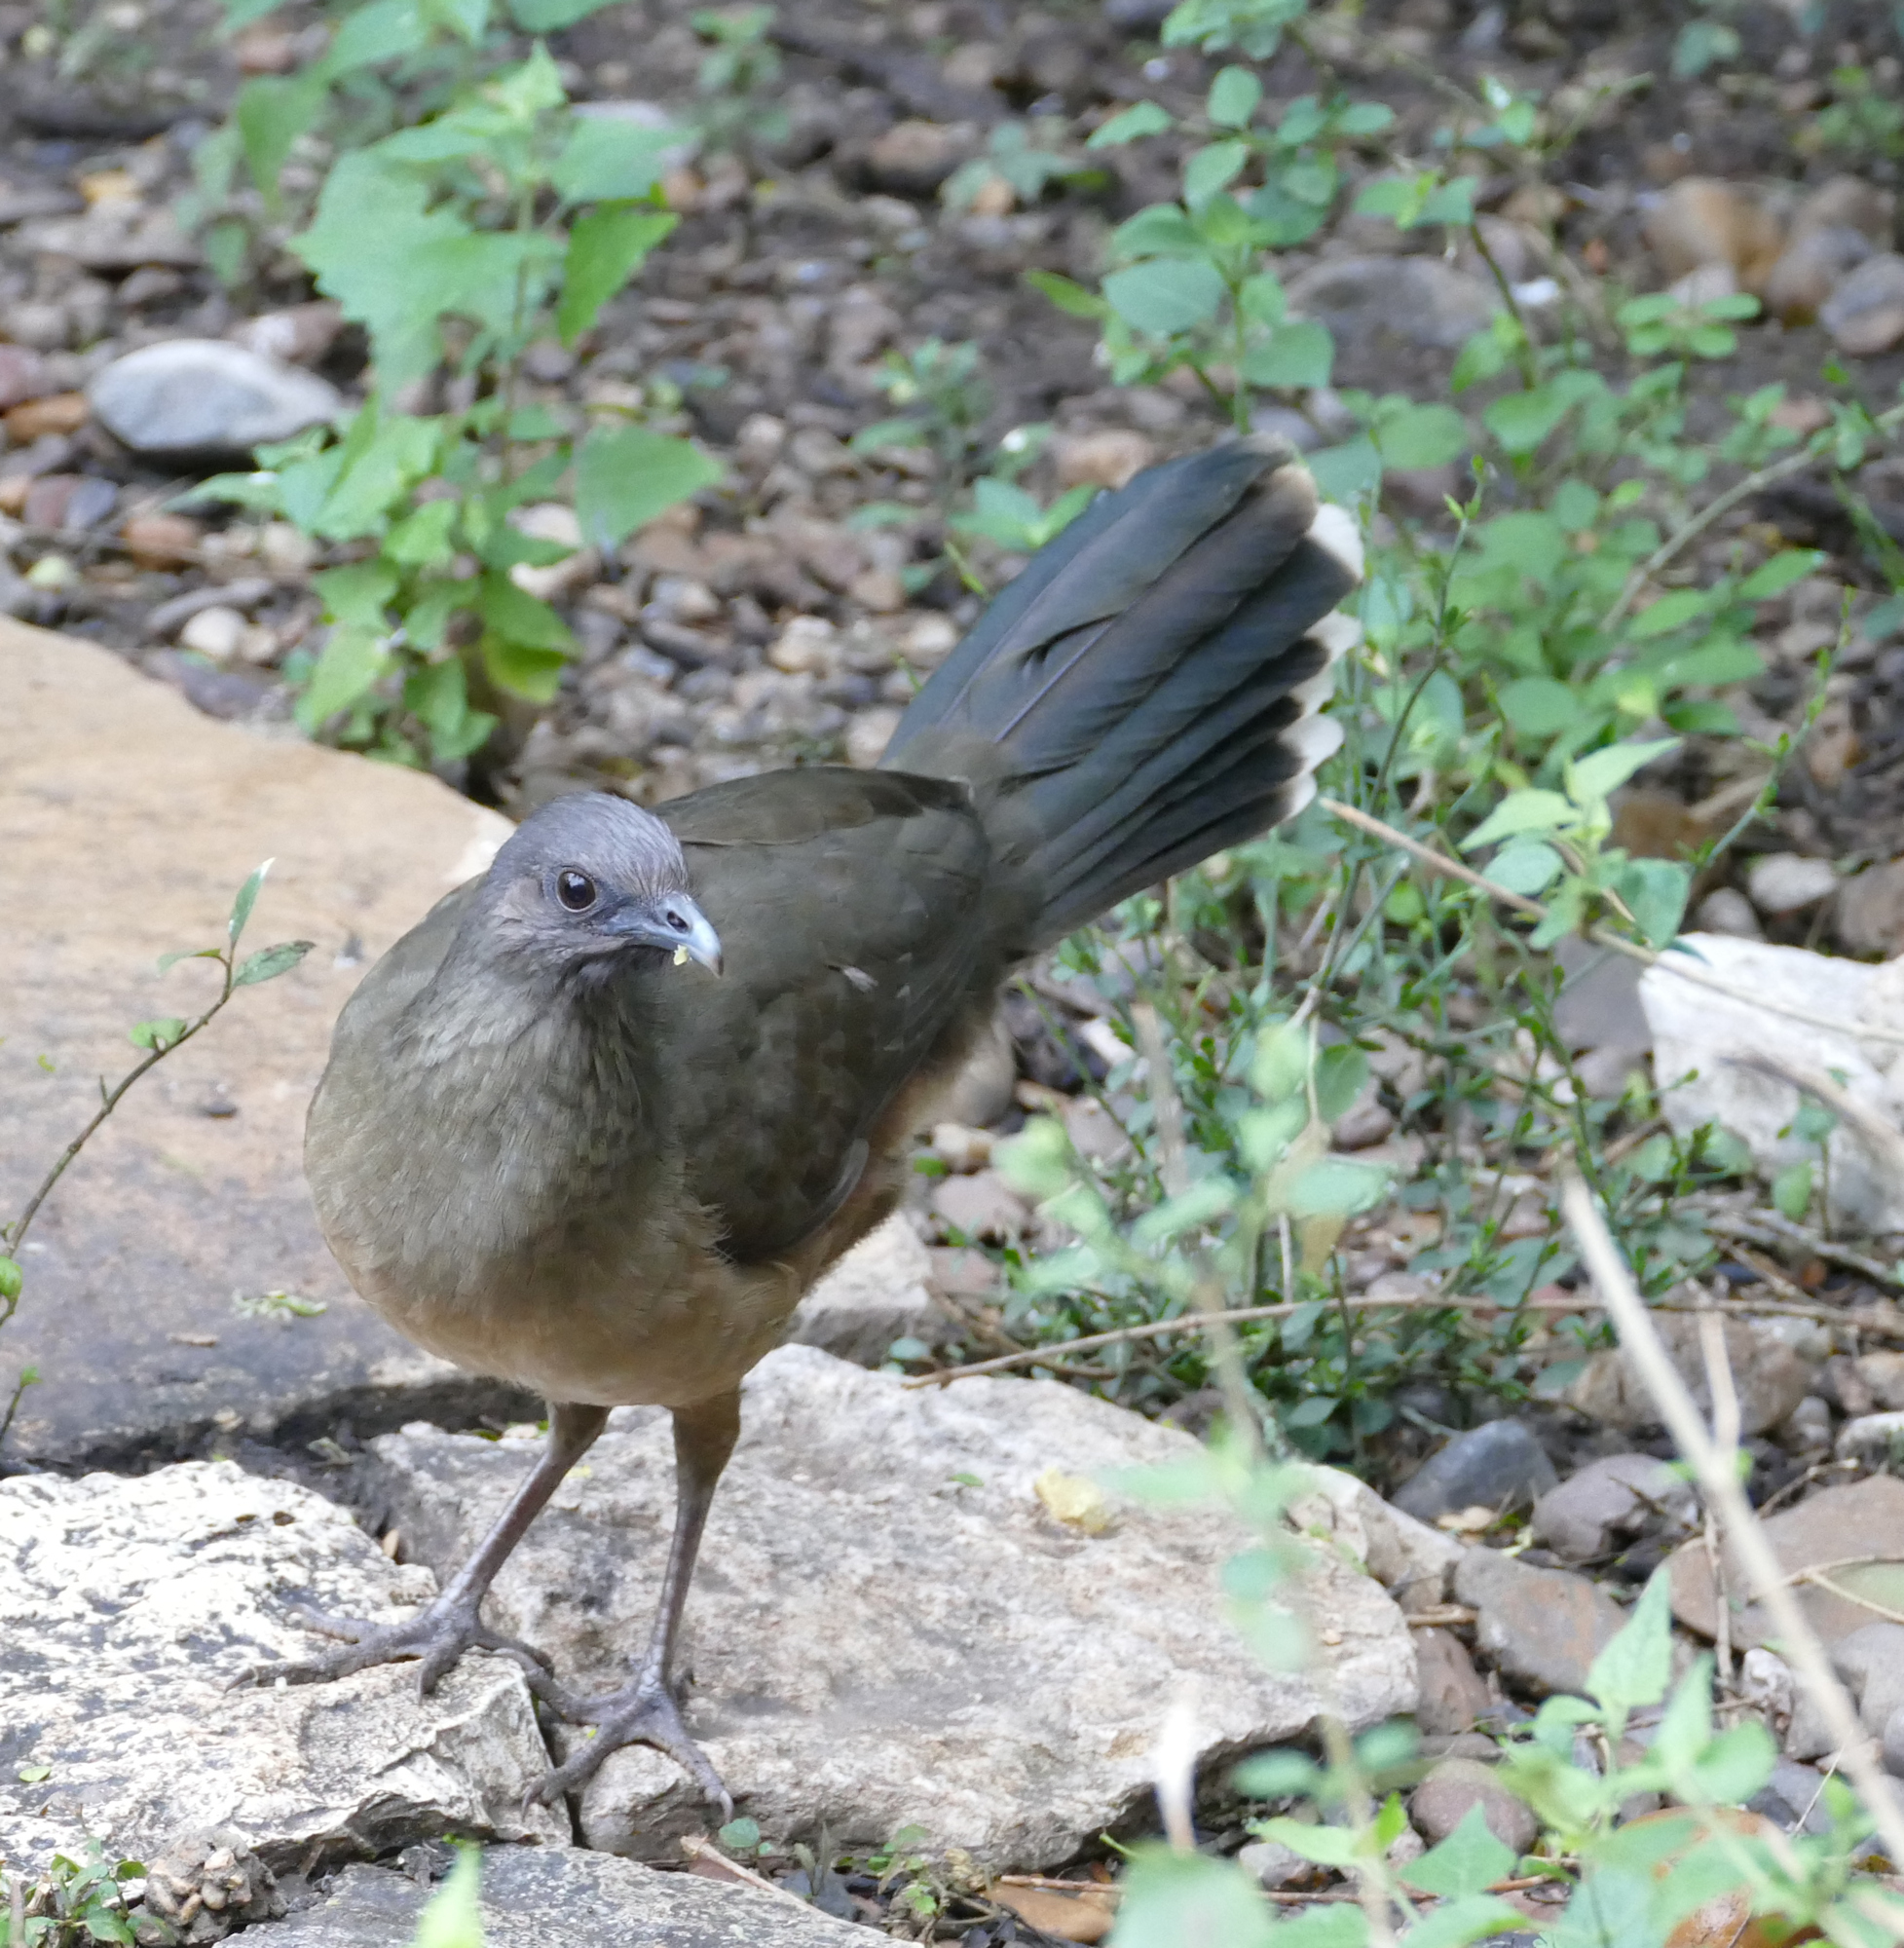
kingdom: Animalia
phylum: Chordata
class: Aves
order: Galliformes
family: Cracidae
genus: Ortalis
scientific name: Ortalis vetula
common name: Plain chachalaca
